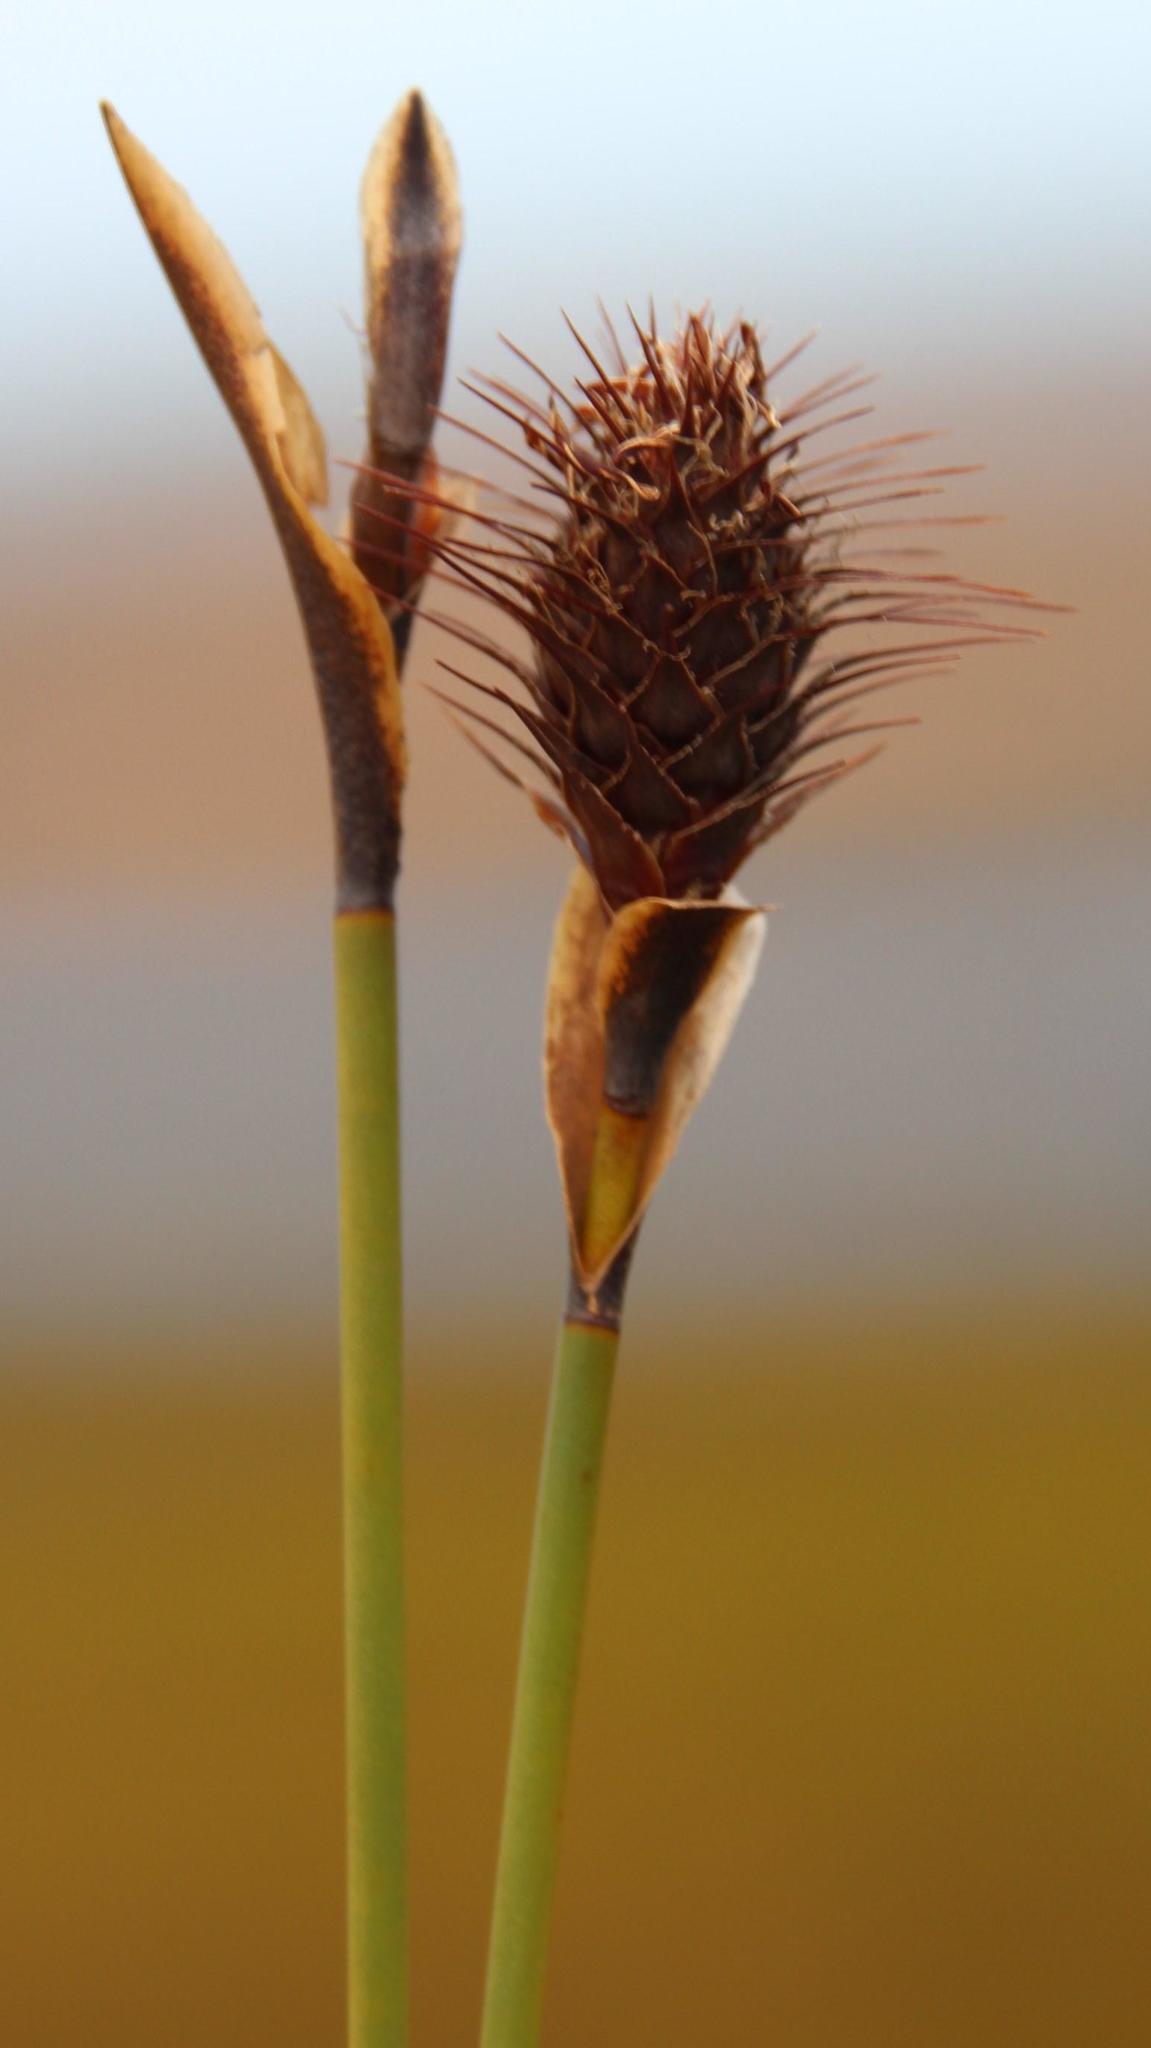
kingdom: Plantae
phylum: Tracheophyta
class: Liliopsida
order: Poales
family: Restionaceae
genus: Hypodiscus
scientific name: Hypodiscus alboaristatus
